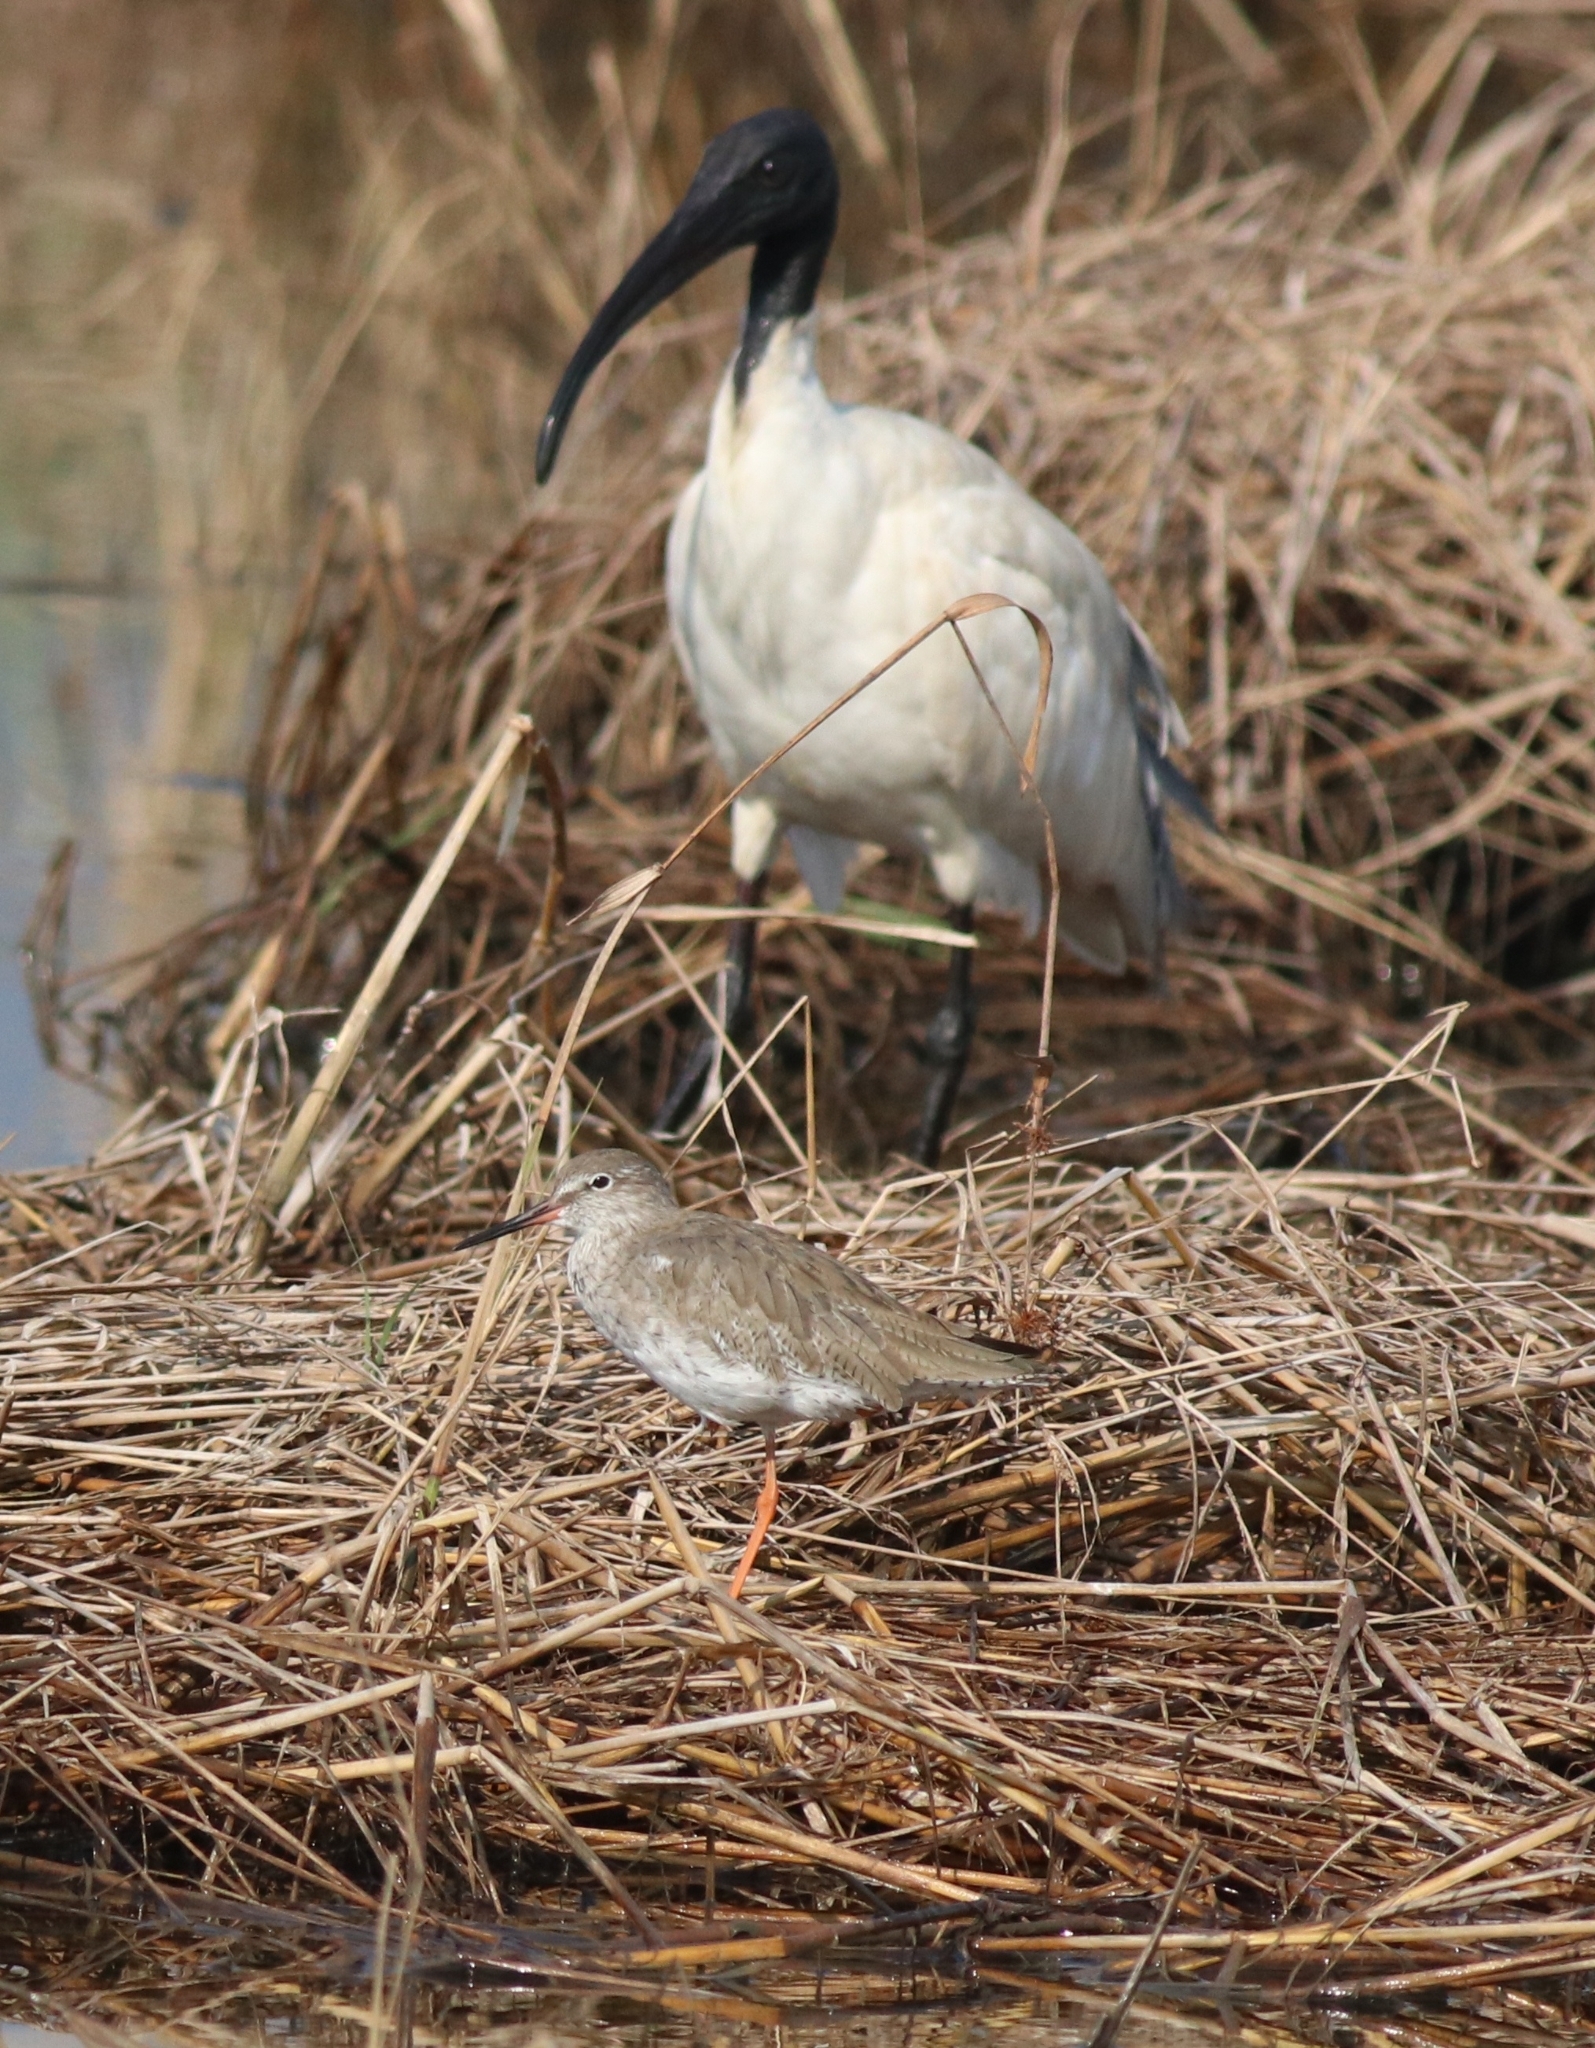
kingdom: Animalia
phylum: Chordata
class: Aves
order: Charadriiformes
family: Scolopacidae
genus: Tringa
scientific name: Tringa totanus
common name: Common redshank
